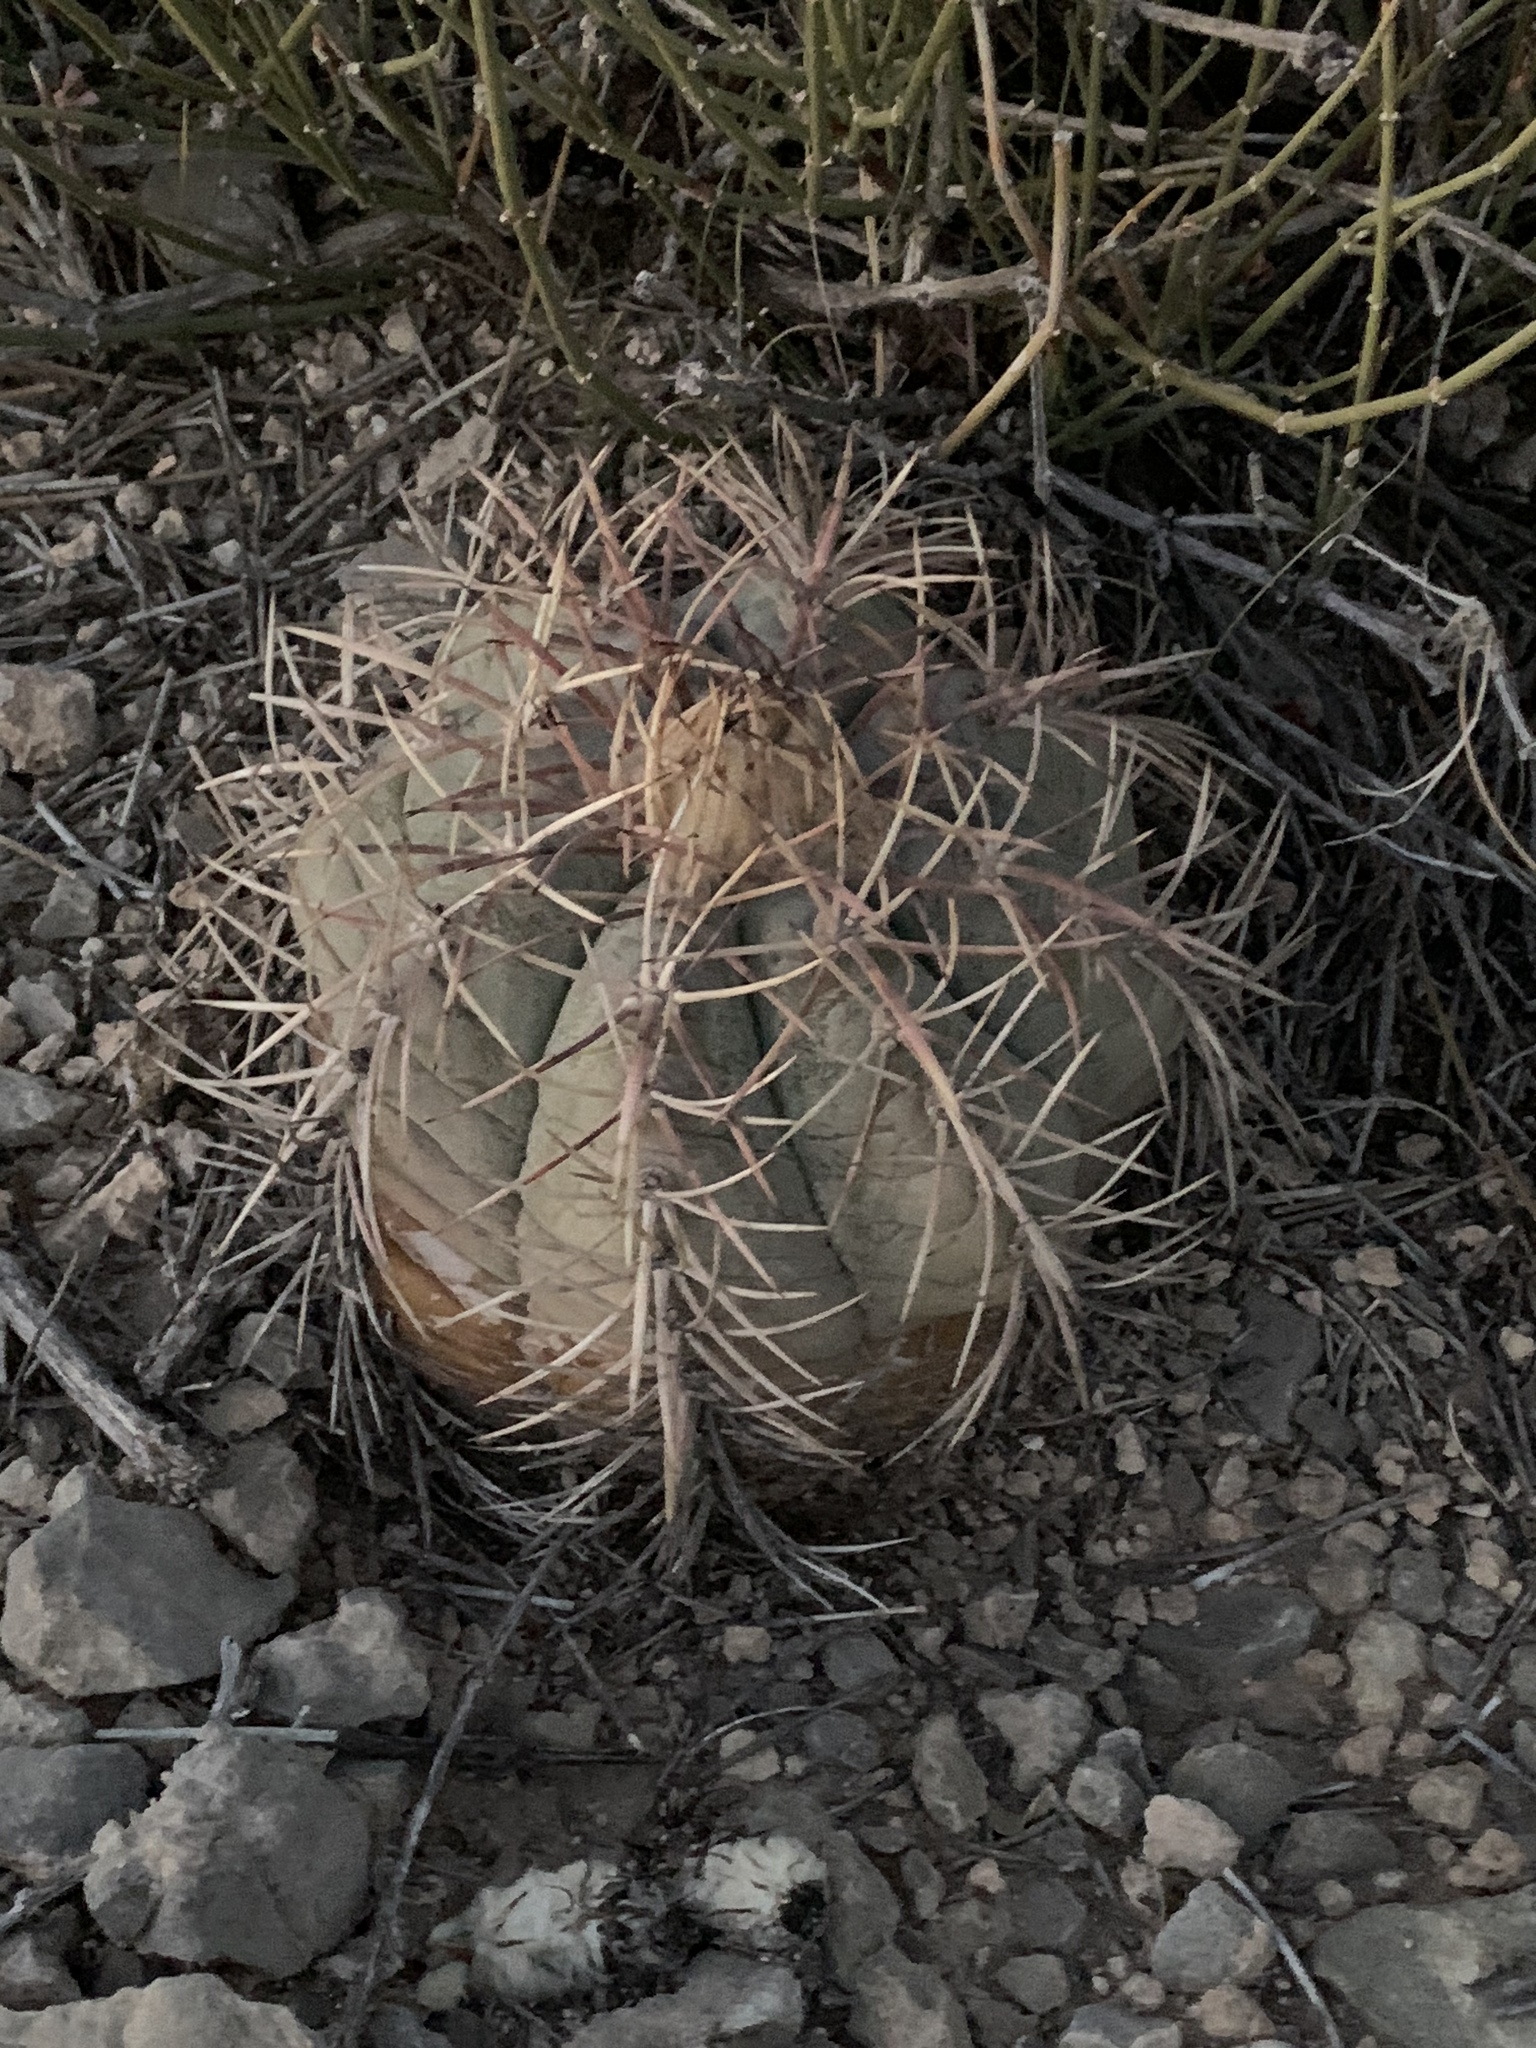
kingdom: Plantae
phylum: Tracheophyta
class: Magnoliopsida
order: Caryophyllales
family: Cactaceae
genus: Echinocactus
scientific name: Echinocactus horizonthalonius
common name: Devilshead
